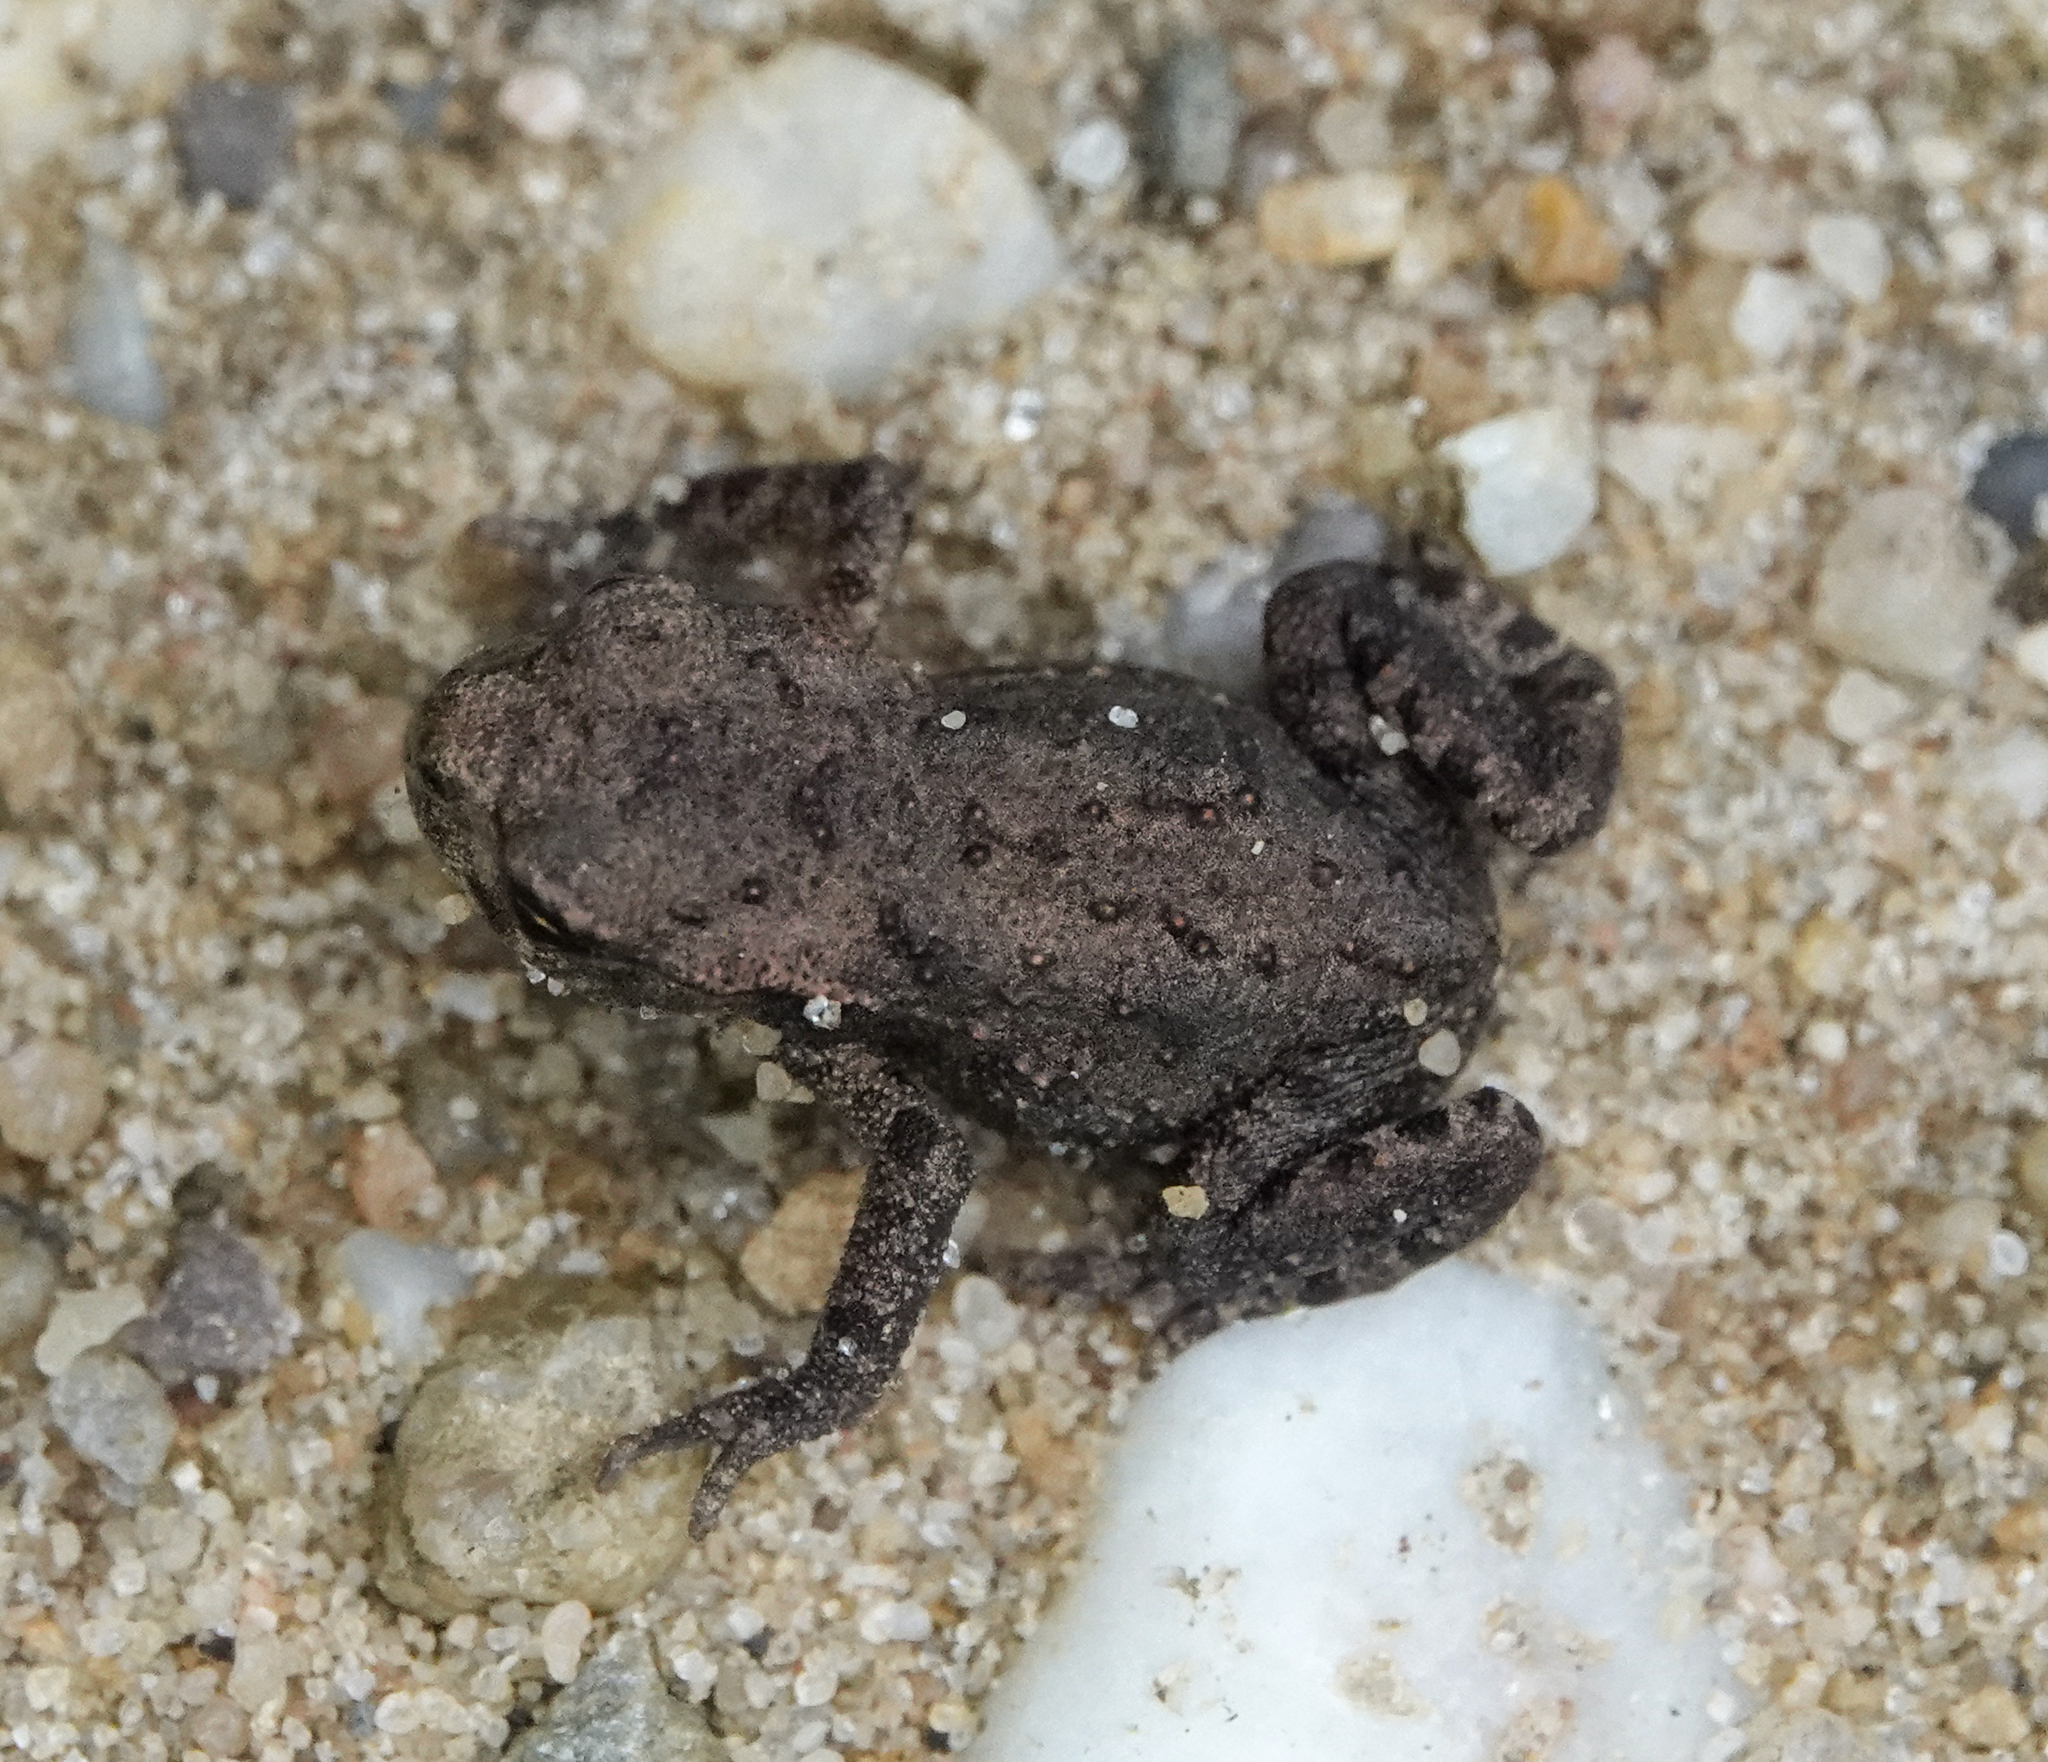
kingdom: Animalia
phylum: Chordata
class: Amphibia
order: Anura
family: Bufonidae
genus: Bufo
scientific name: Bufo bufo
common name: Common toad
